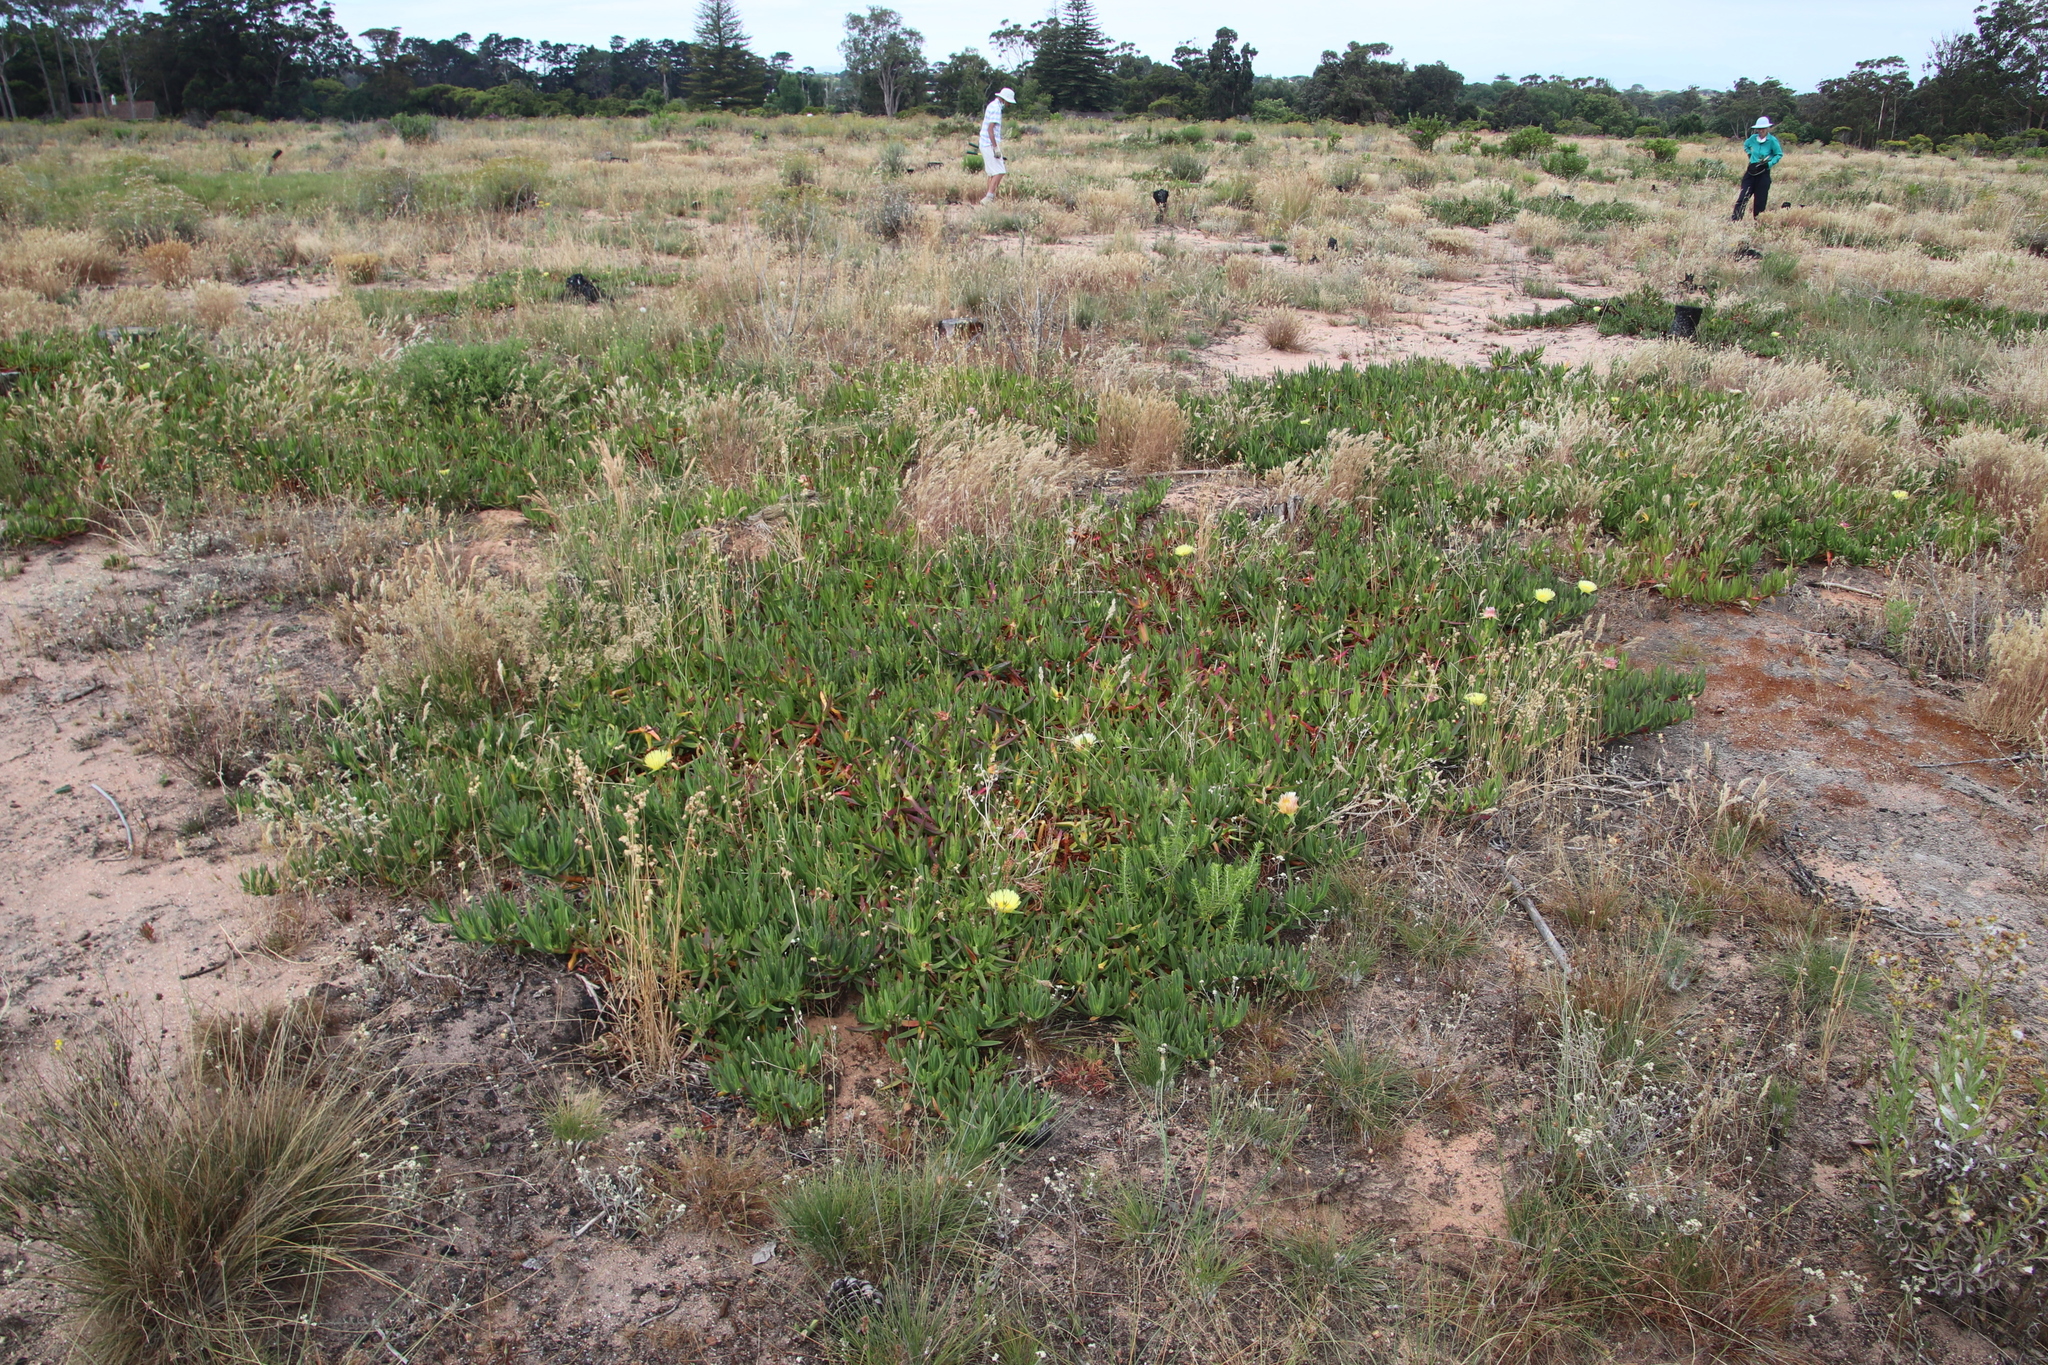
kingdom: Plantae
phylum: Tracheophyta
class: Magnoliopsida
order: Caryophyllales
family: Aizoaceae
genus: Carpobrotus
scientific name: Carpobrotus edulis
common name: Hottentot-fig
